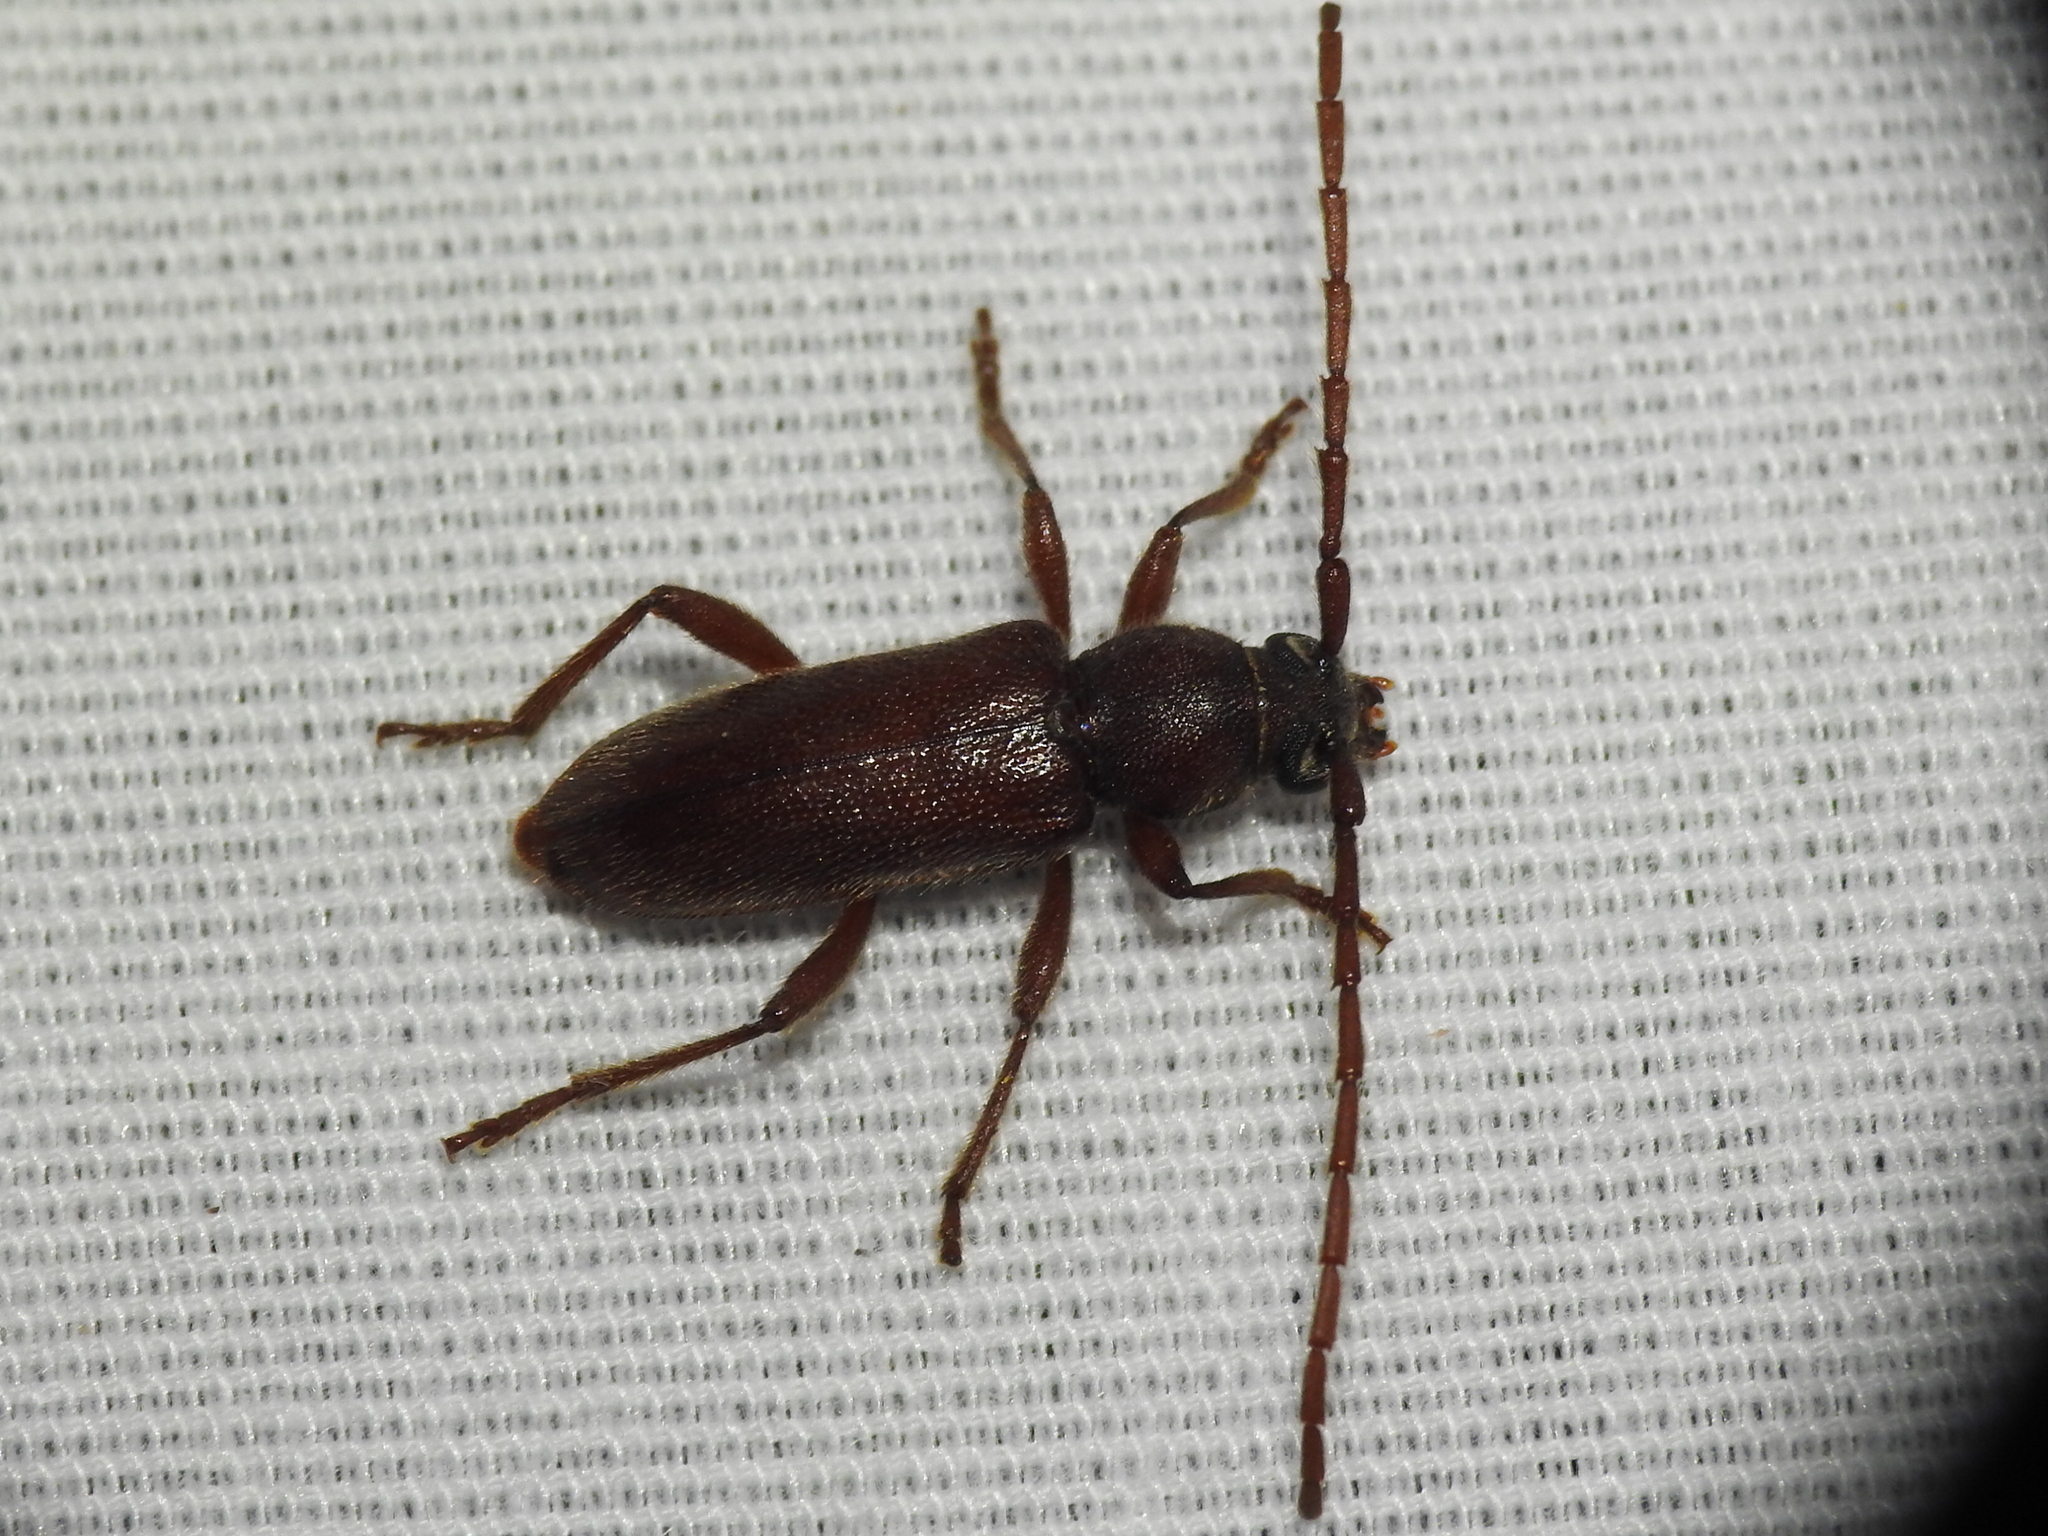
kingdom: Animalia
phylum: Arthropoda
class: Insecta
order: Coleoptera
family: Cerambycidae
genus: Anelaphus
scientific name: Anelaphus moestus
